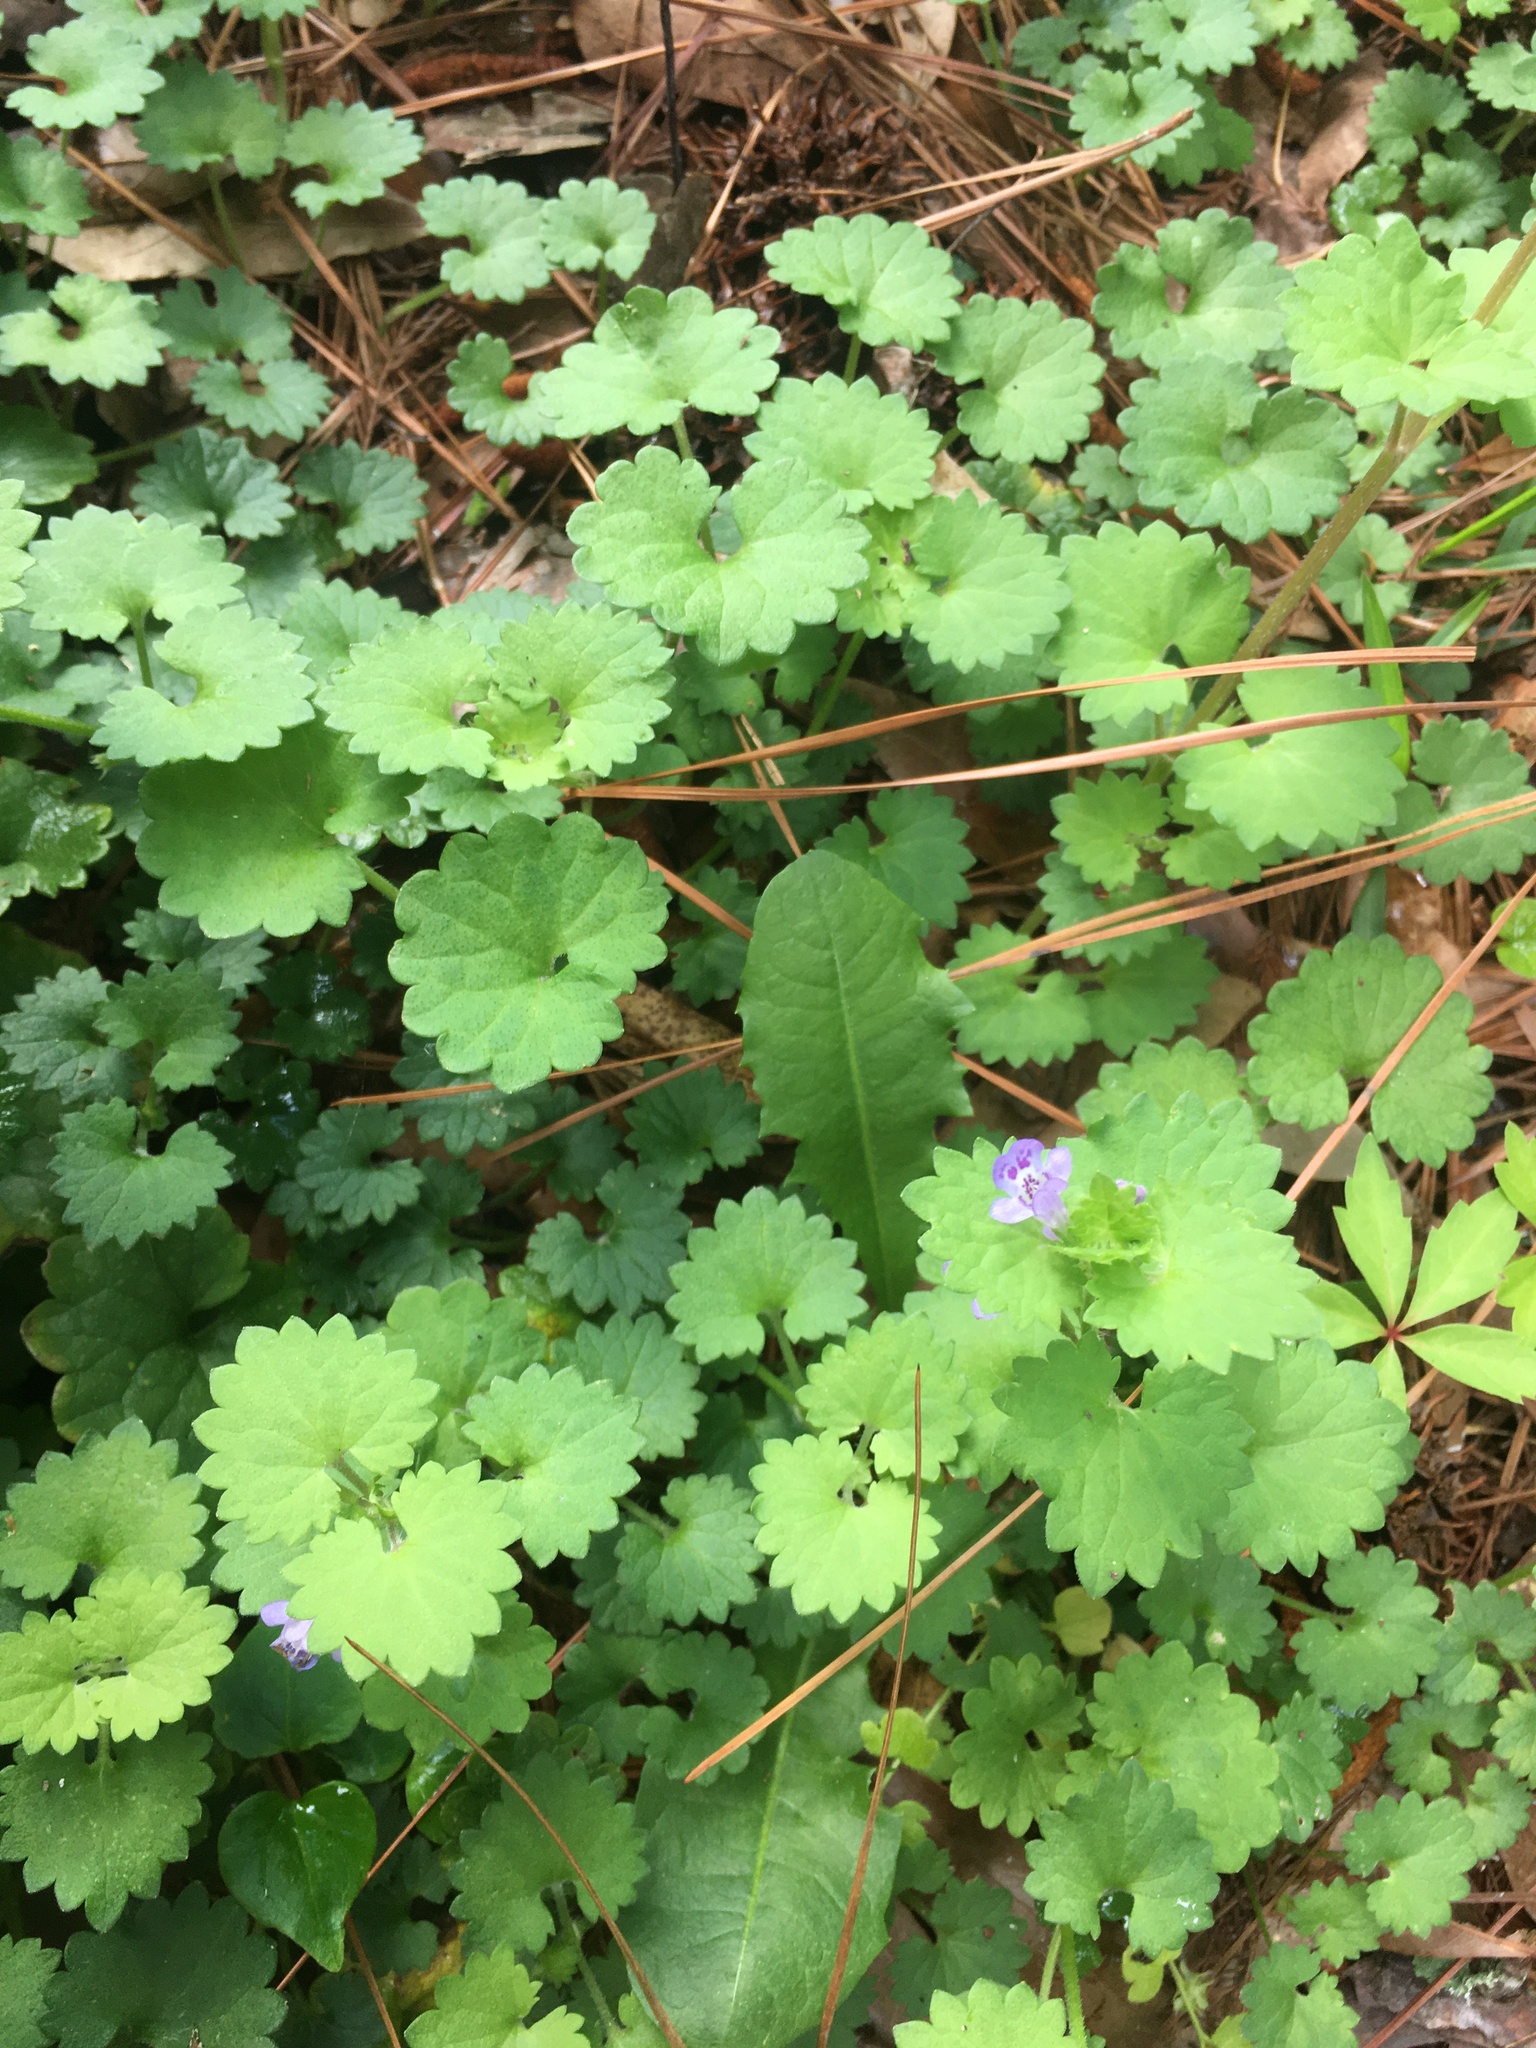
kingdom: Plantae
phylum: Tracheophyta
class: Magnoliopsida
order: Lamiales
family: Lamiaceae
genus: Glechoma
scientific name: Glechoma hederacea
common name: Ground ivy
